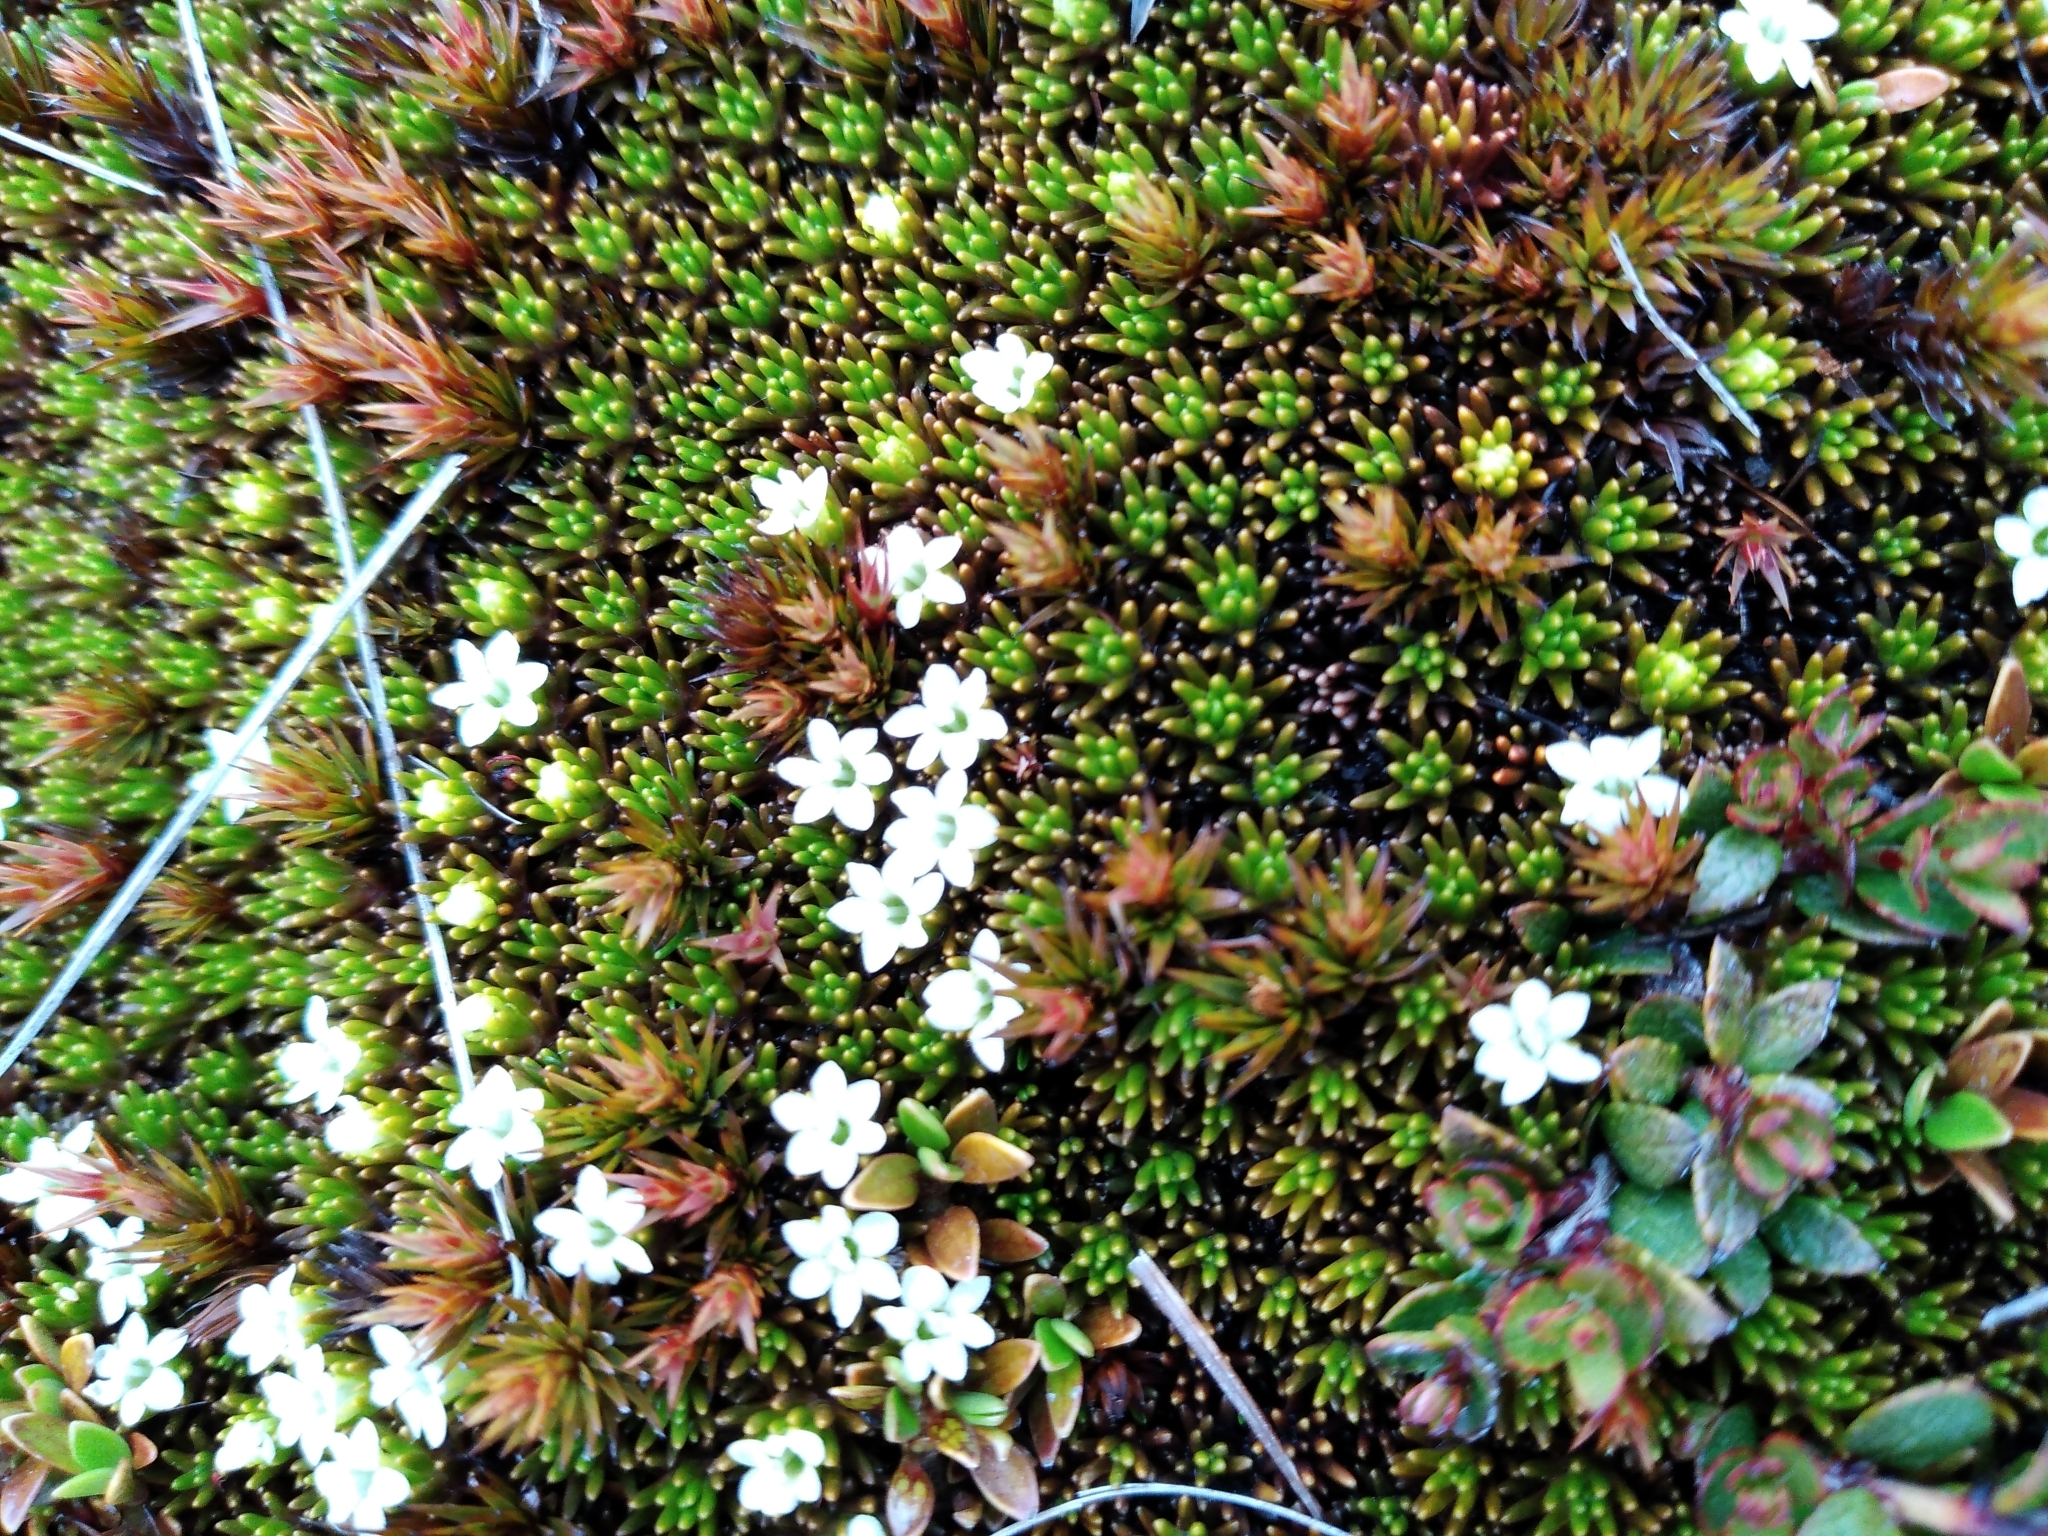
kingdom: Plantae
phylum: Tracheophyta
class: Magnoliopsida
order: Asterales
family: Stylidiaceae
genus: Phyllachne
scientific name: Phyllachne colensoi
